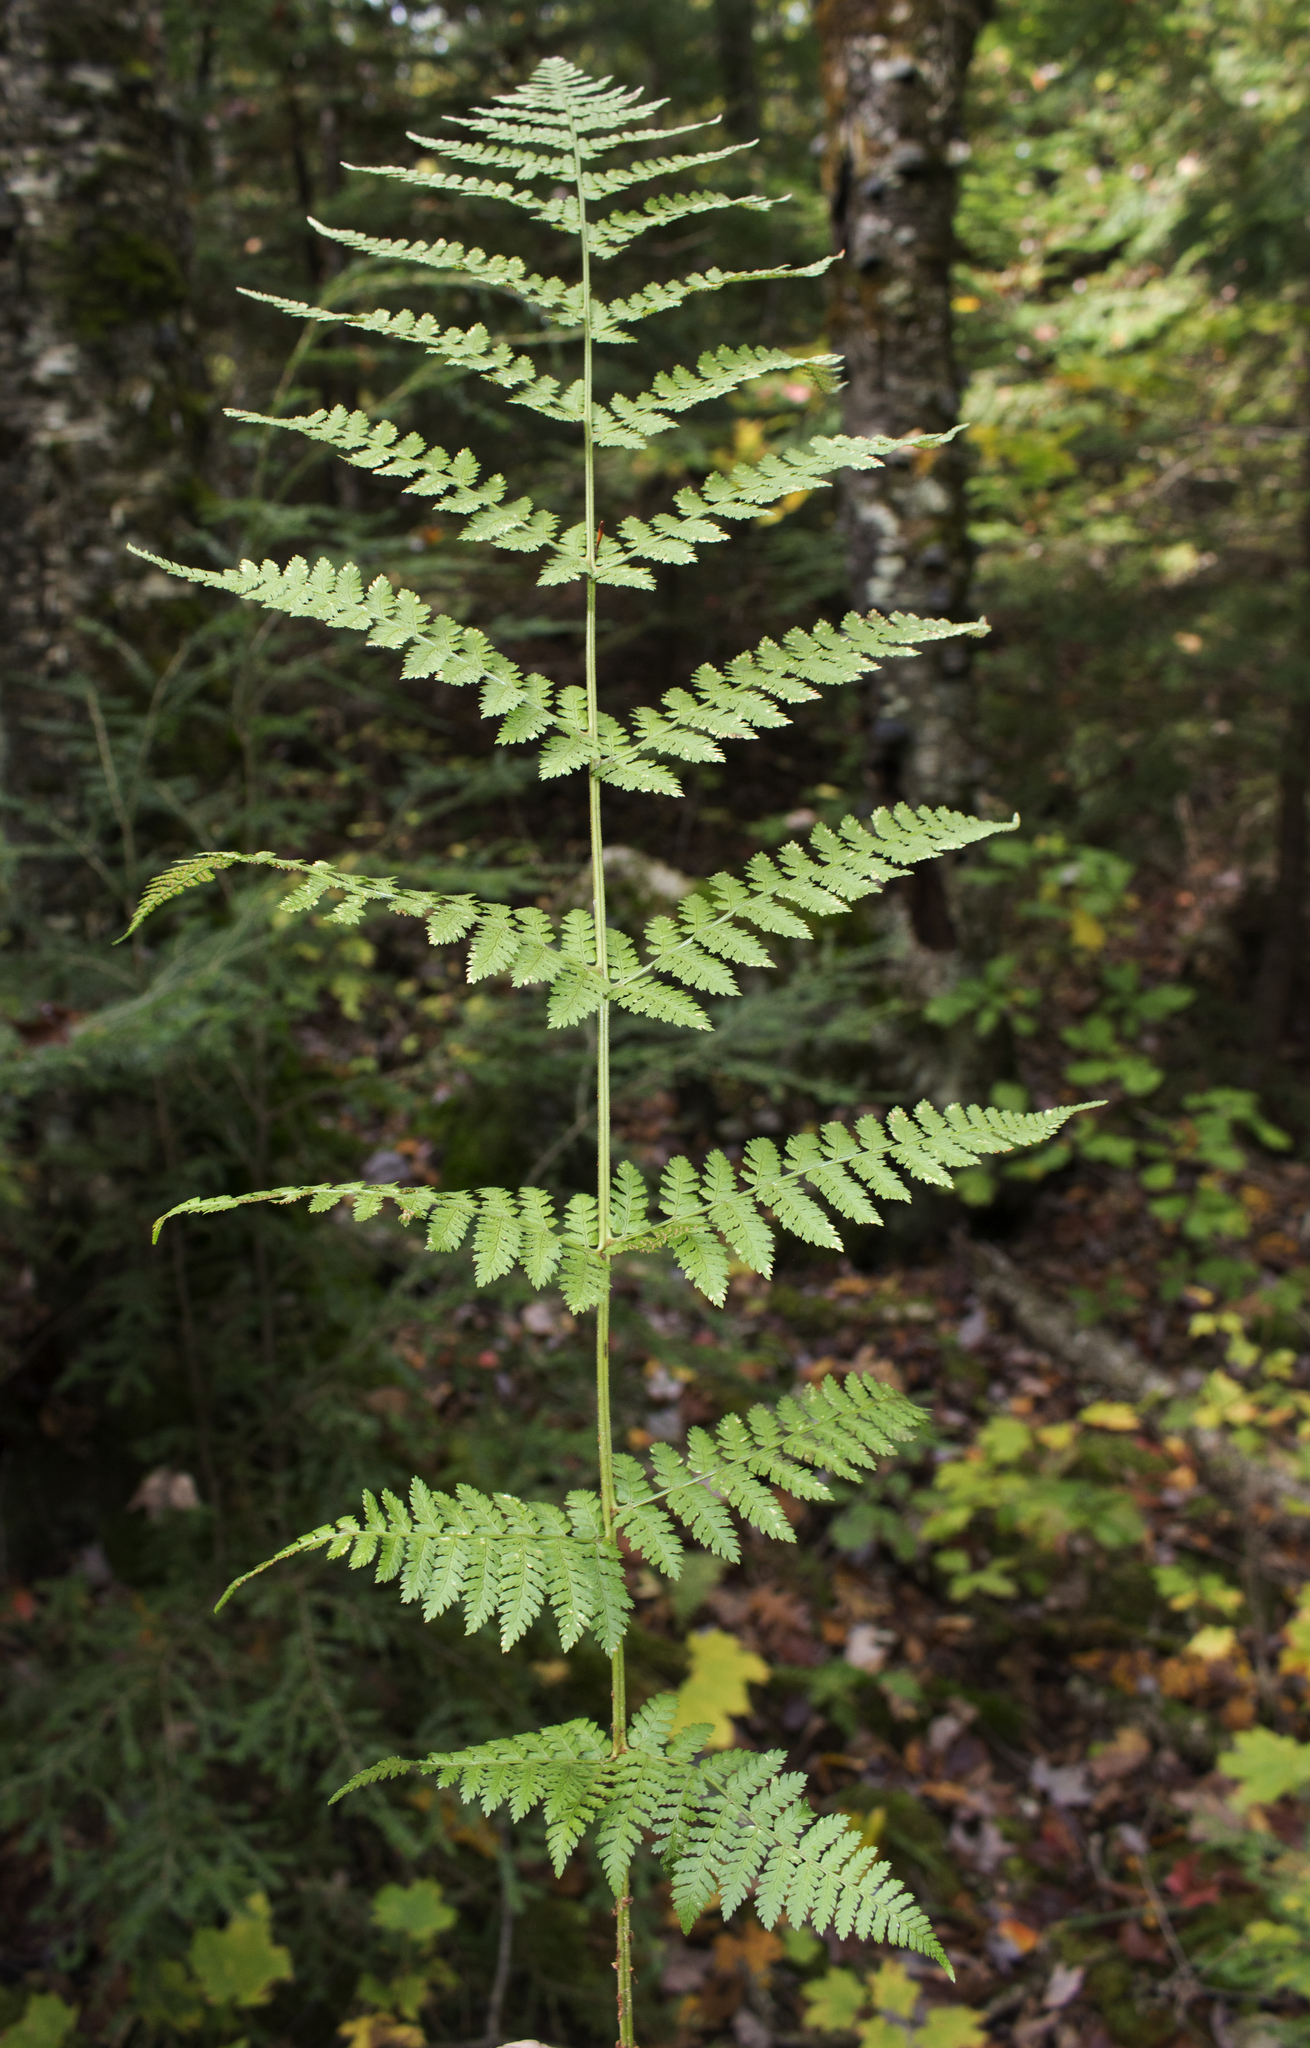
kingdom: Plantae
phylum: Tracheophyta
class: Polypodiopsida
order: Polypodiales
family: Dryopteridaceae
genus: Dryopteris
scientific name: Dryopteris intermedia
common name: Evergreen wood fern
